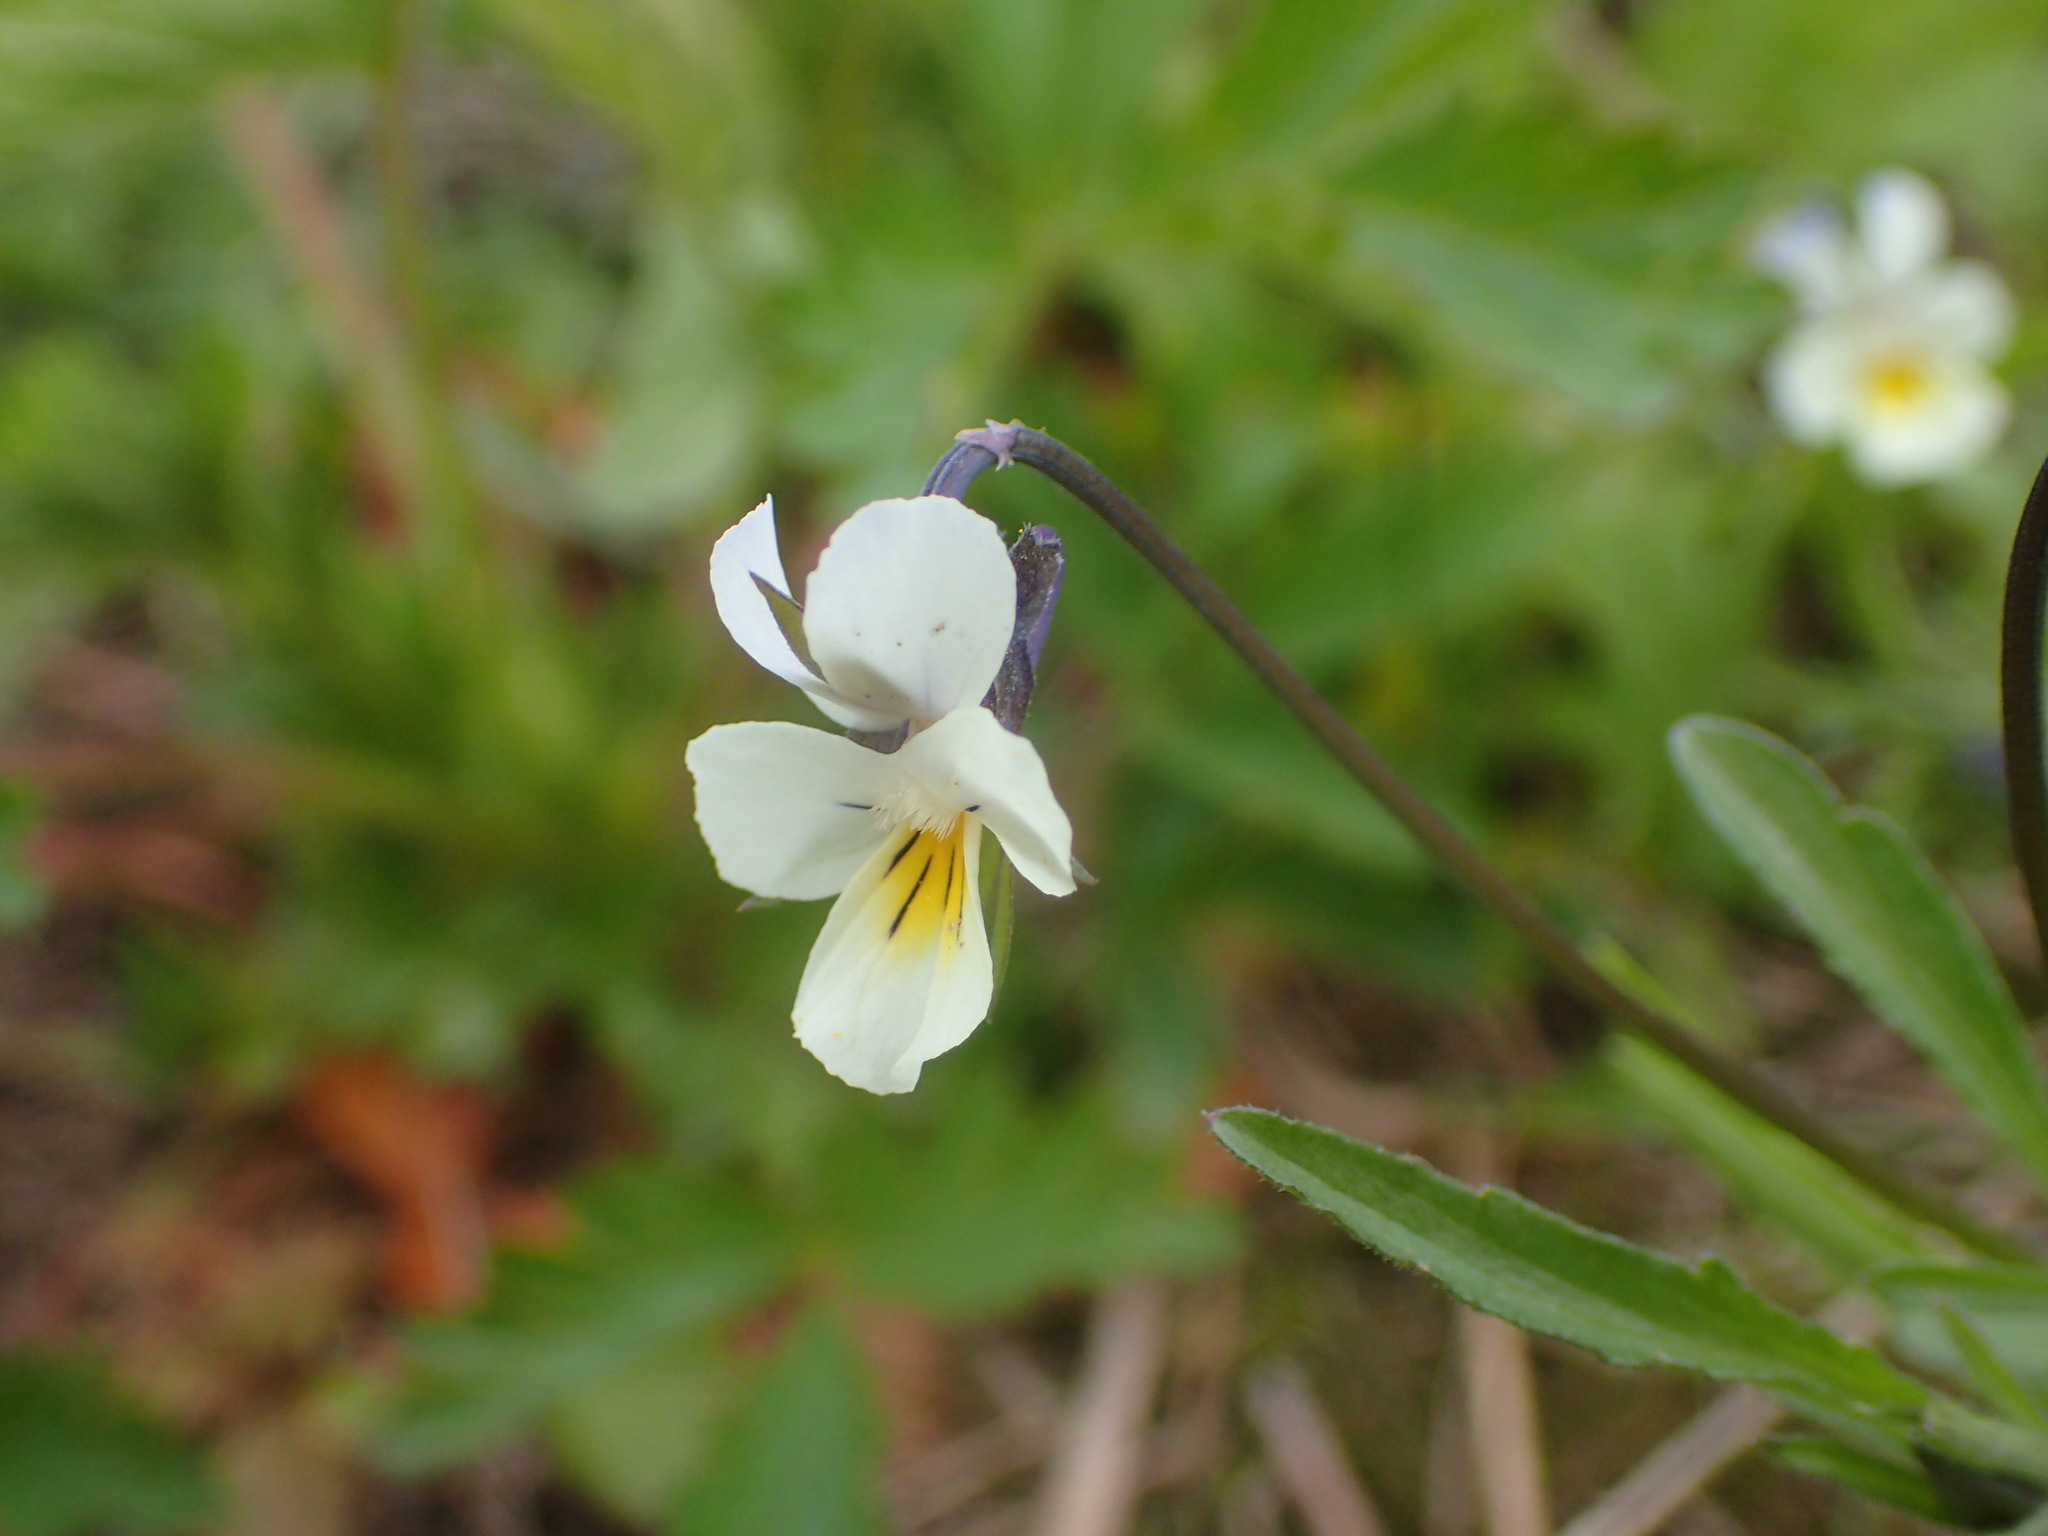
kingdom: Plantae
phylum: Tracheophyta
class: Magnoliopsida
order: Malpighiales
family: Violaceae
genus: Viola
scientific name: Viola arvensis
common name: Field pansy
